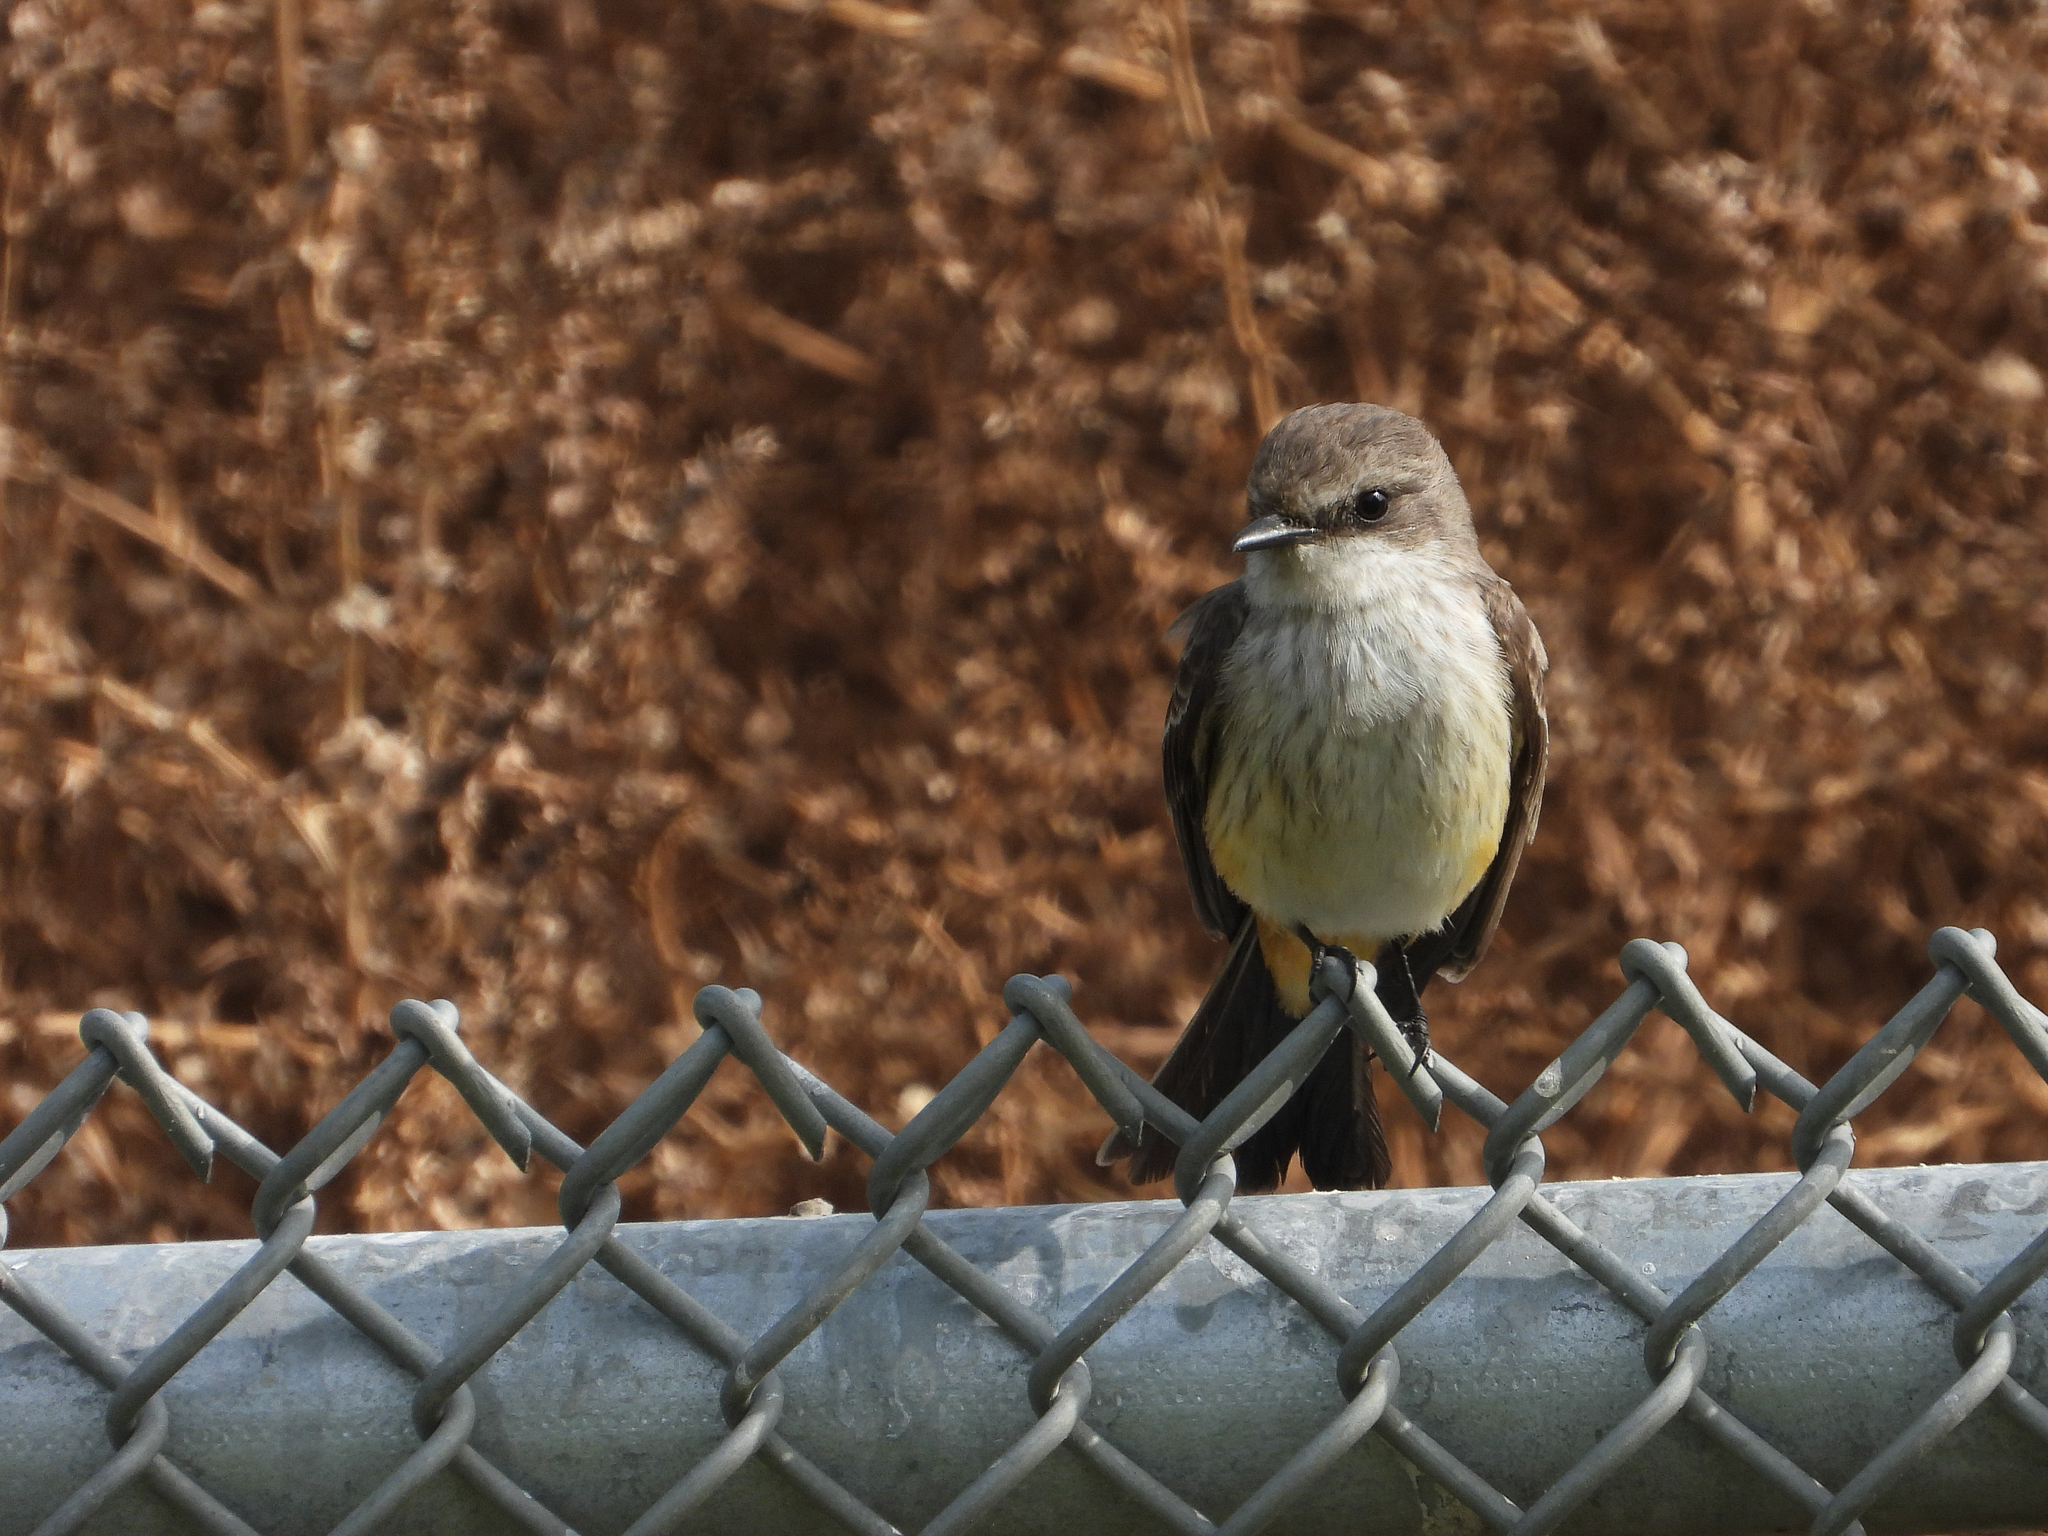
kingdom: Animalia
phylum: Chordata
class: Aves
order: Passeriformes
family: Tyrannidae
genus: Pyrocephalus
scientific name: Pyrocephalus rubinus
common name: Vermilion flycatcher
